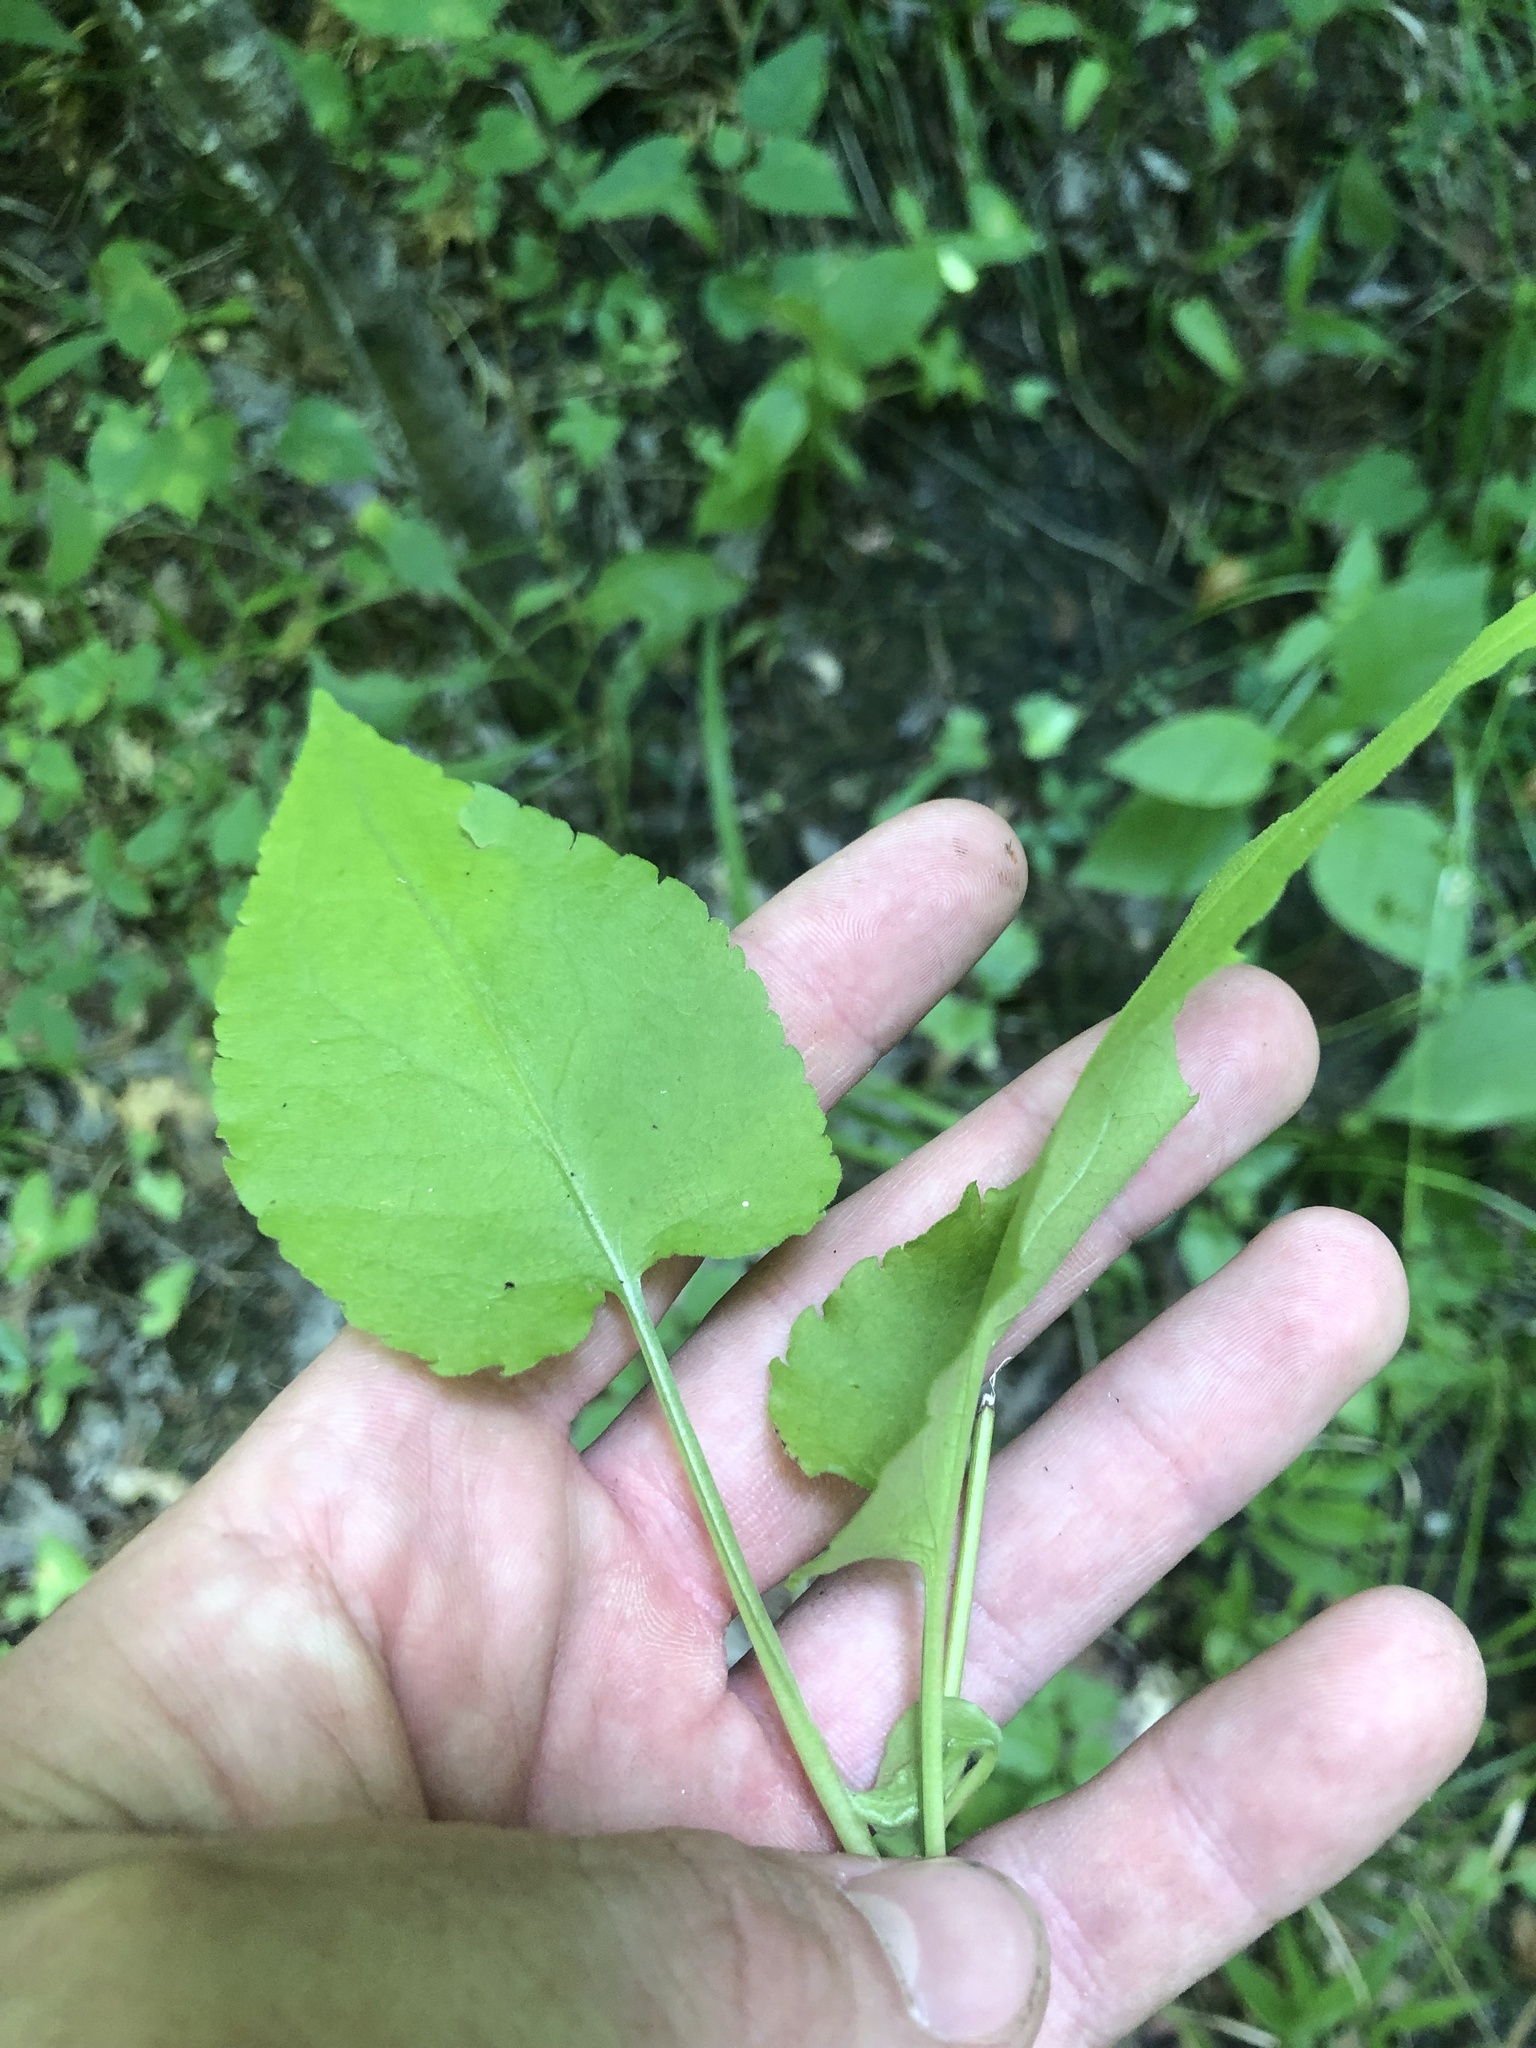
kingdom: Plantae
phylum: Tracheophyta
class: Magnoliopsida
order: Asterales
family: Asteraceae
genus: Symphyotrichum
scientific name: Symphyotrichum drummondii
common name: Drummond's aster
